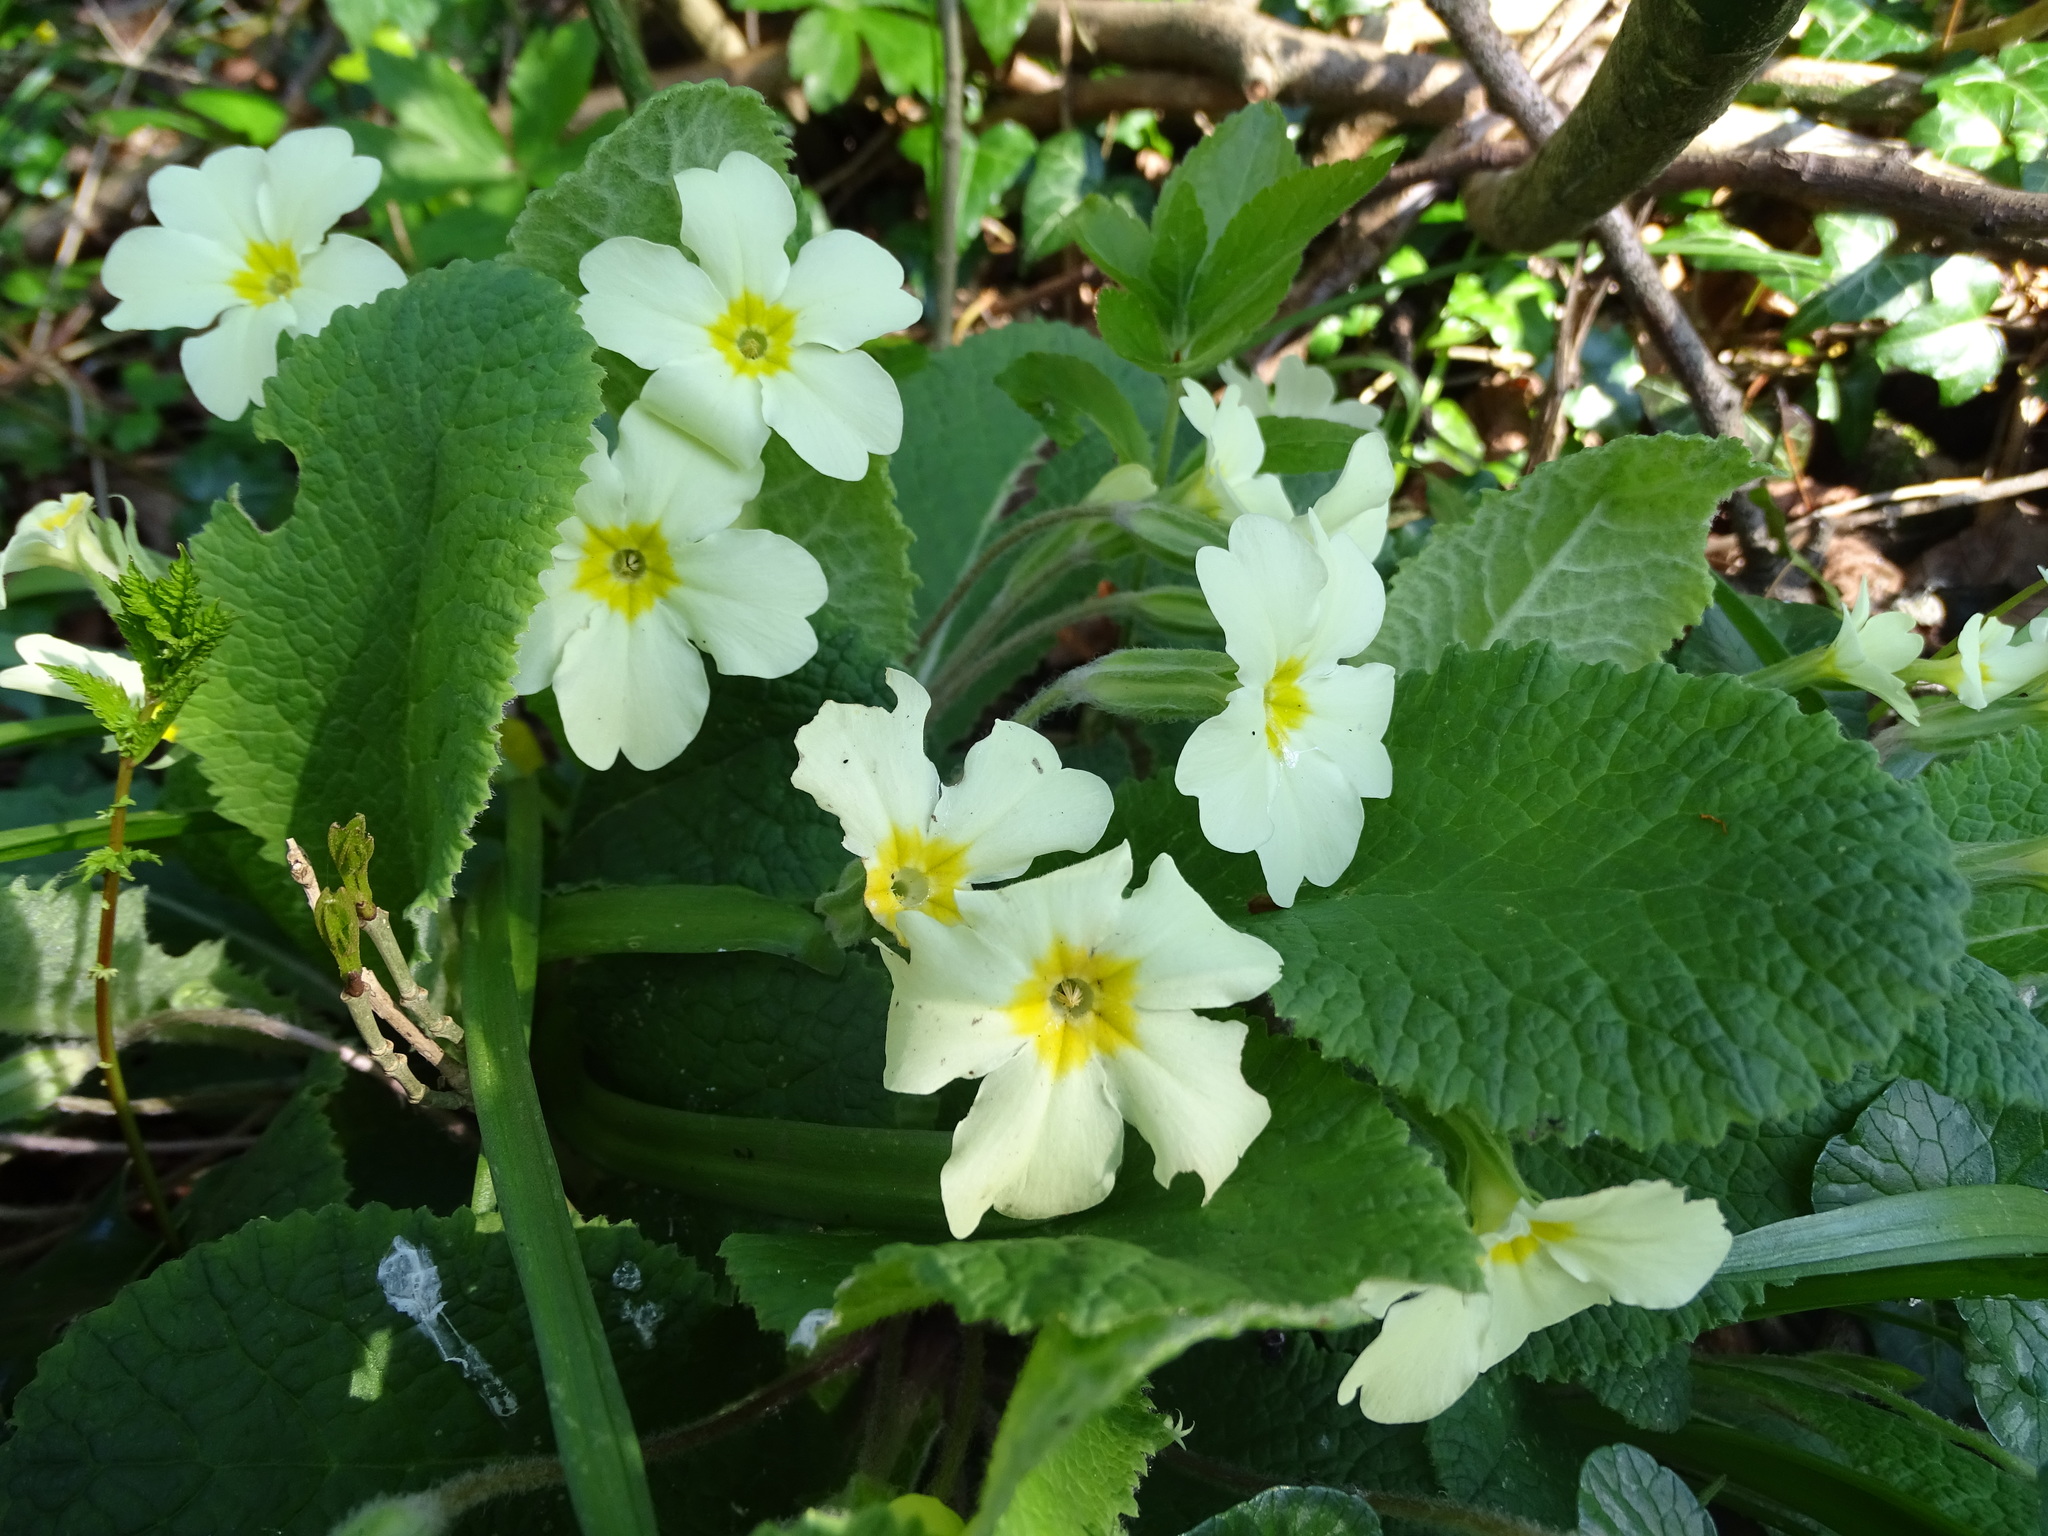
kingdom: Plantae
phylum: Tracheophyta
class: Magnoliopsida
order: Ericales
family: Primulaceae
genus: Primula
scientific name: Primula vulgaris
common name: Primrose
